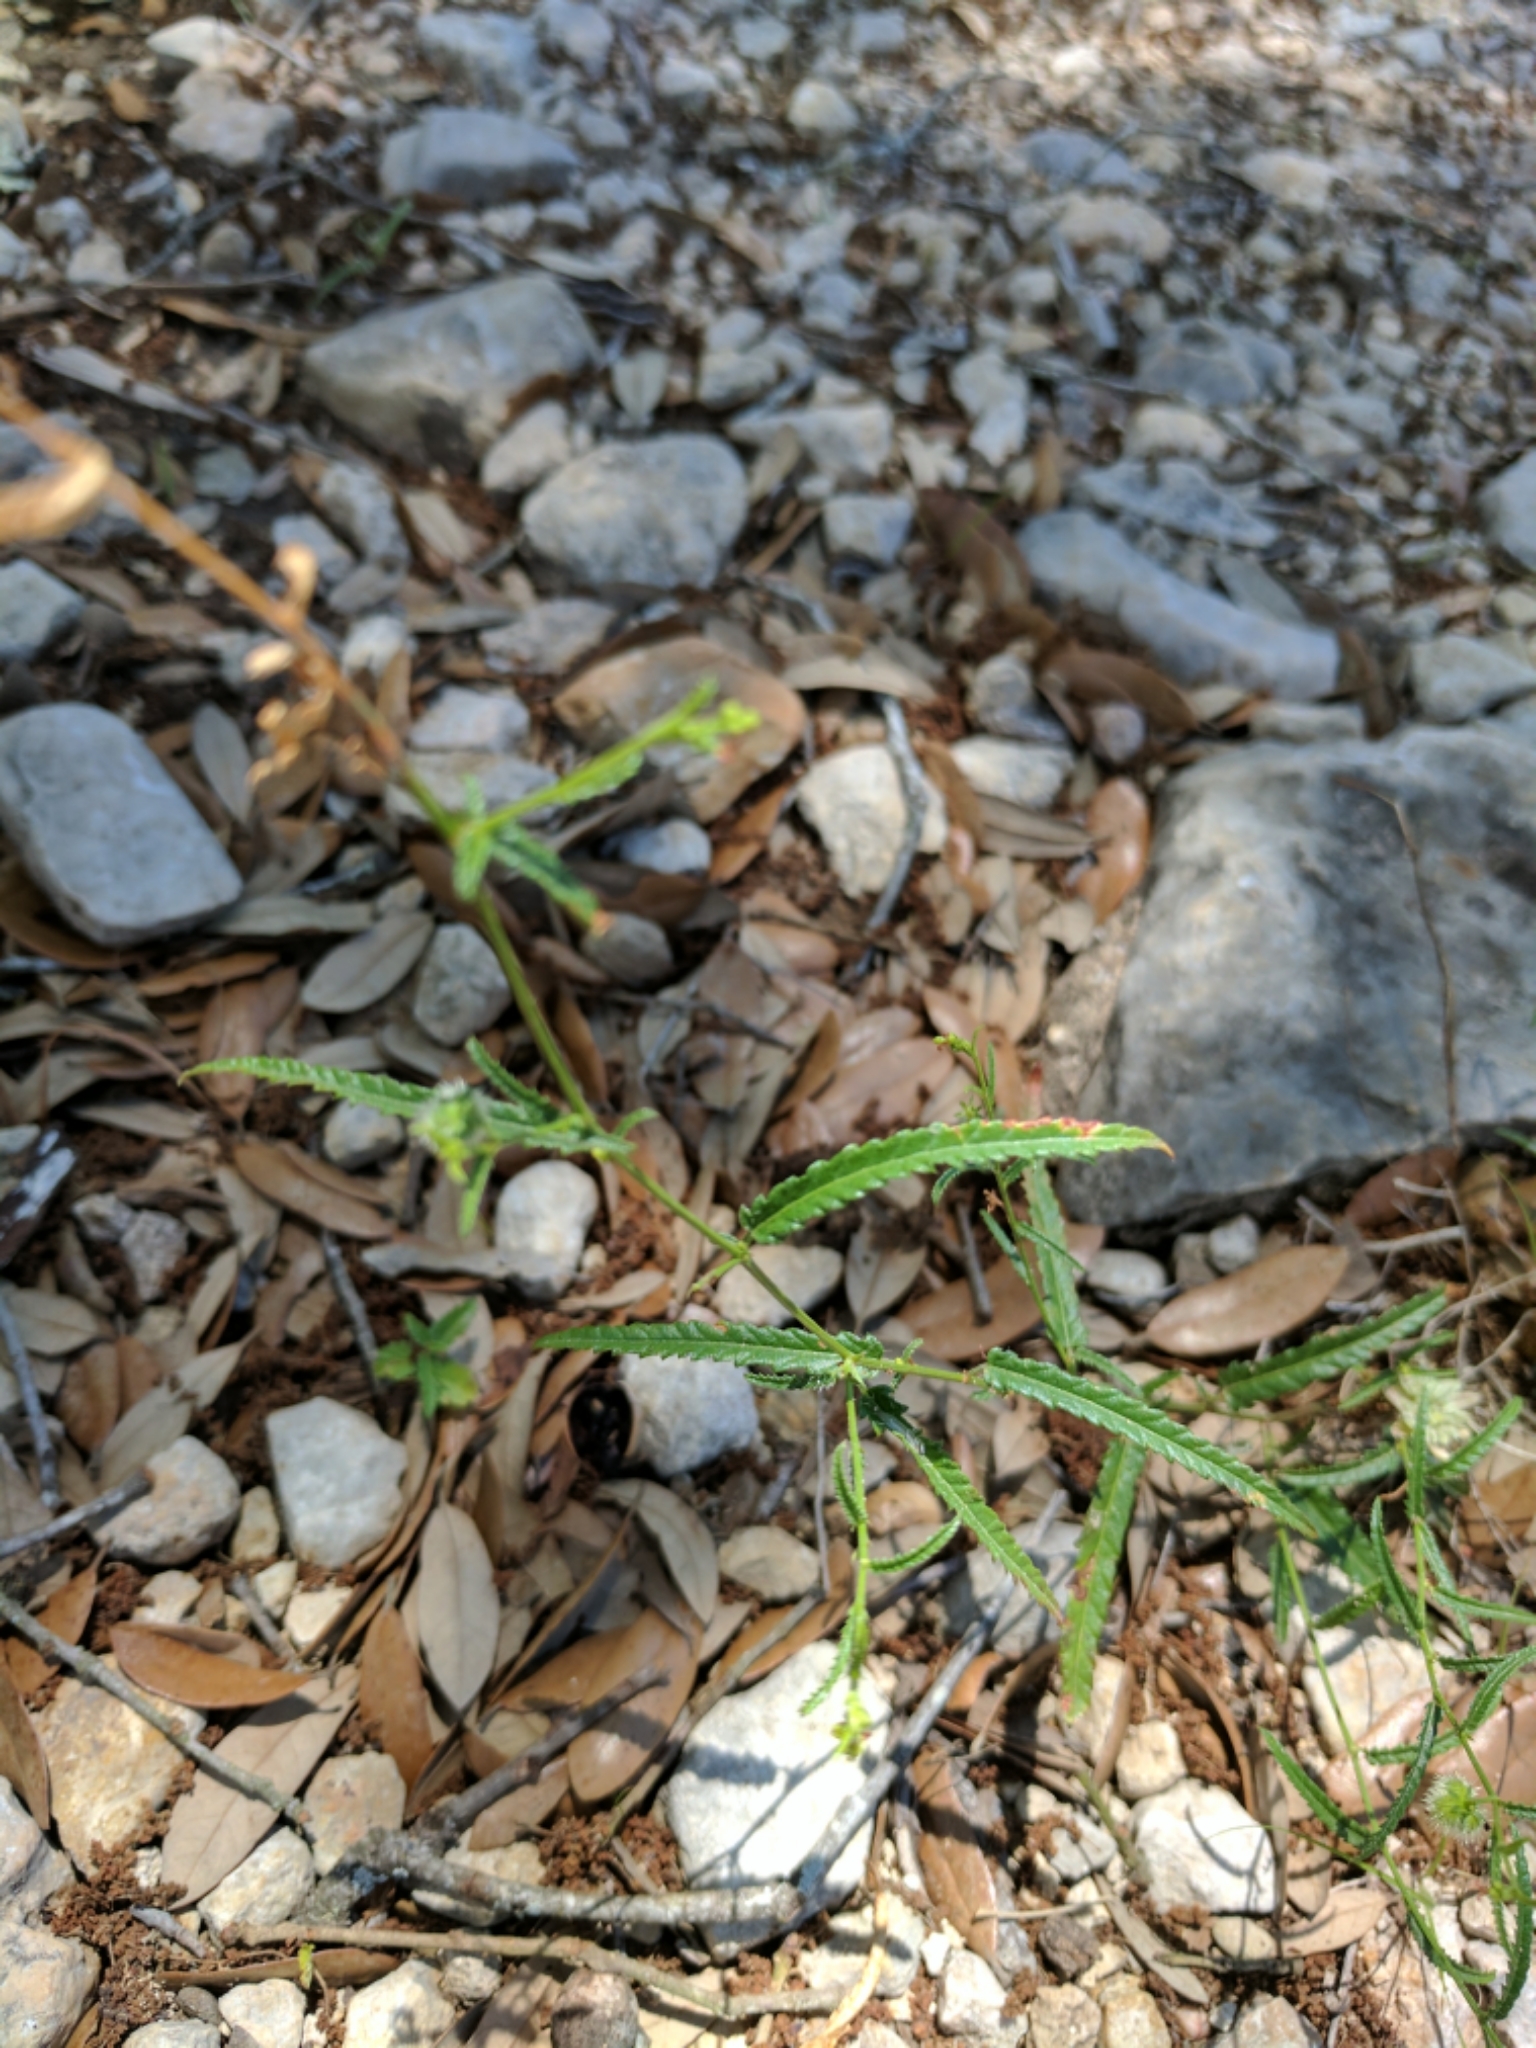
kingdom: Plantae
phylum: Tracheophyta
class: Magnoliopsida
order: Malpighiales
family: Euphorbiaceae
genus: Tragia
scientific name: Tragia ramosa
